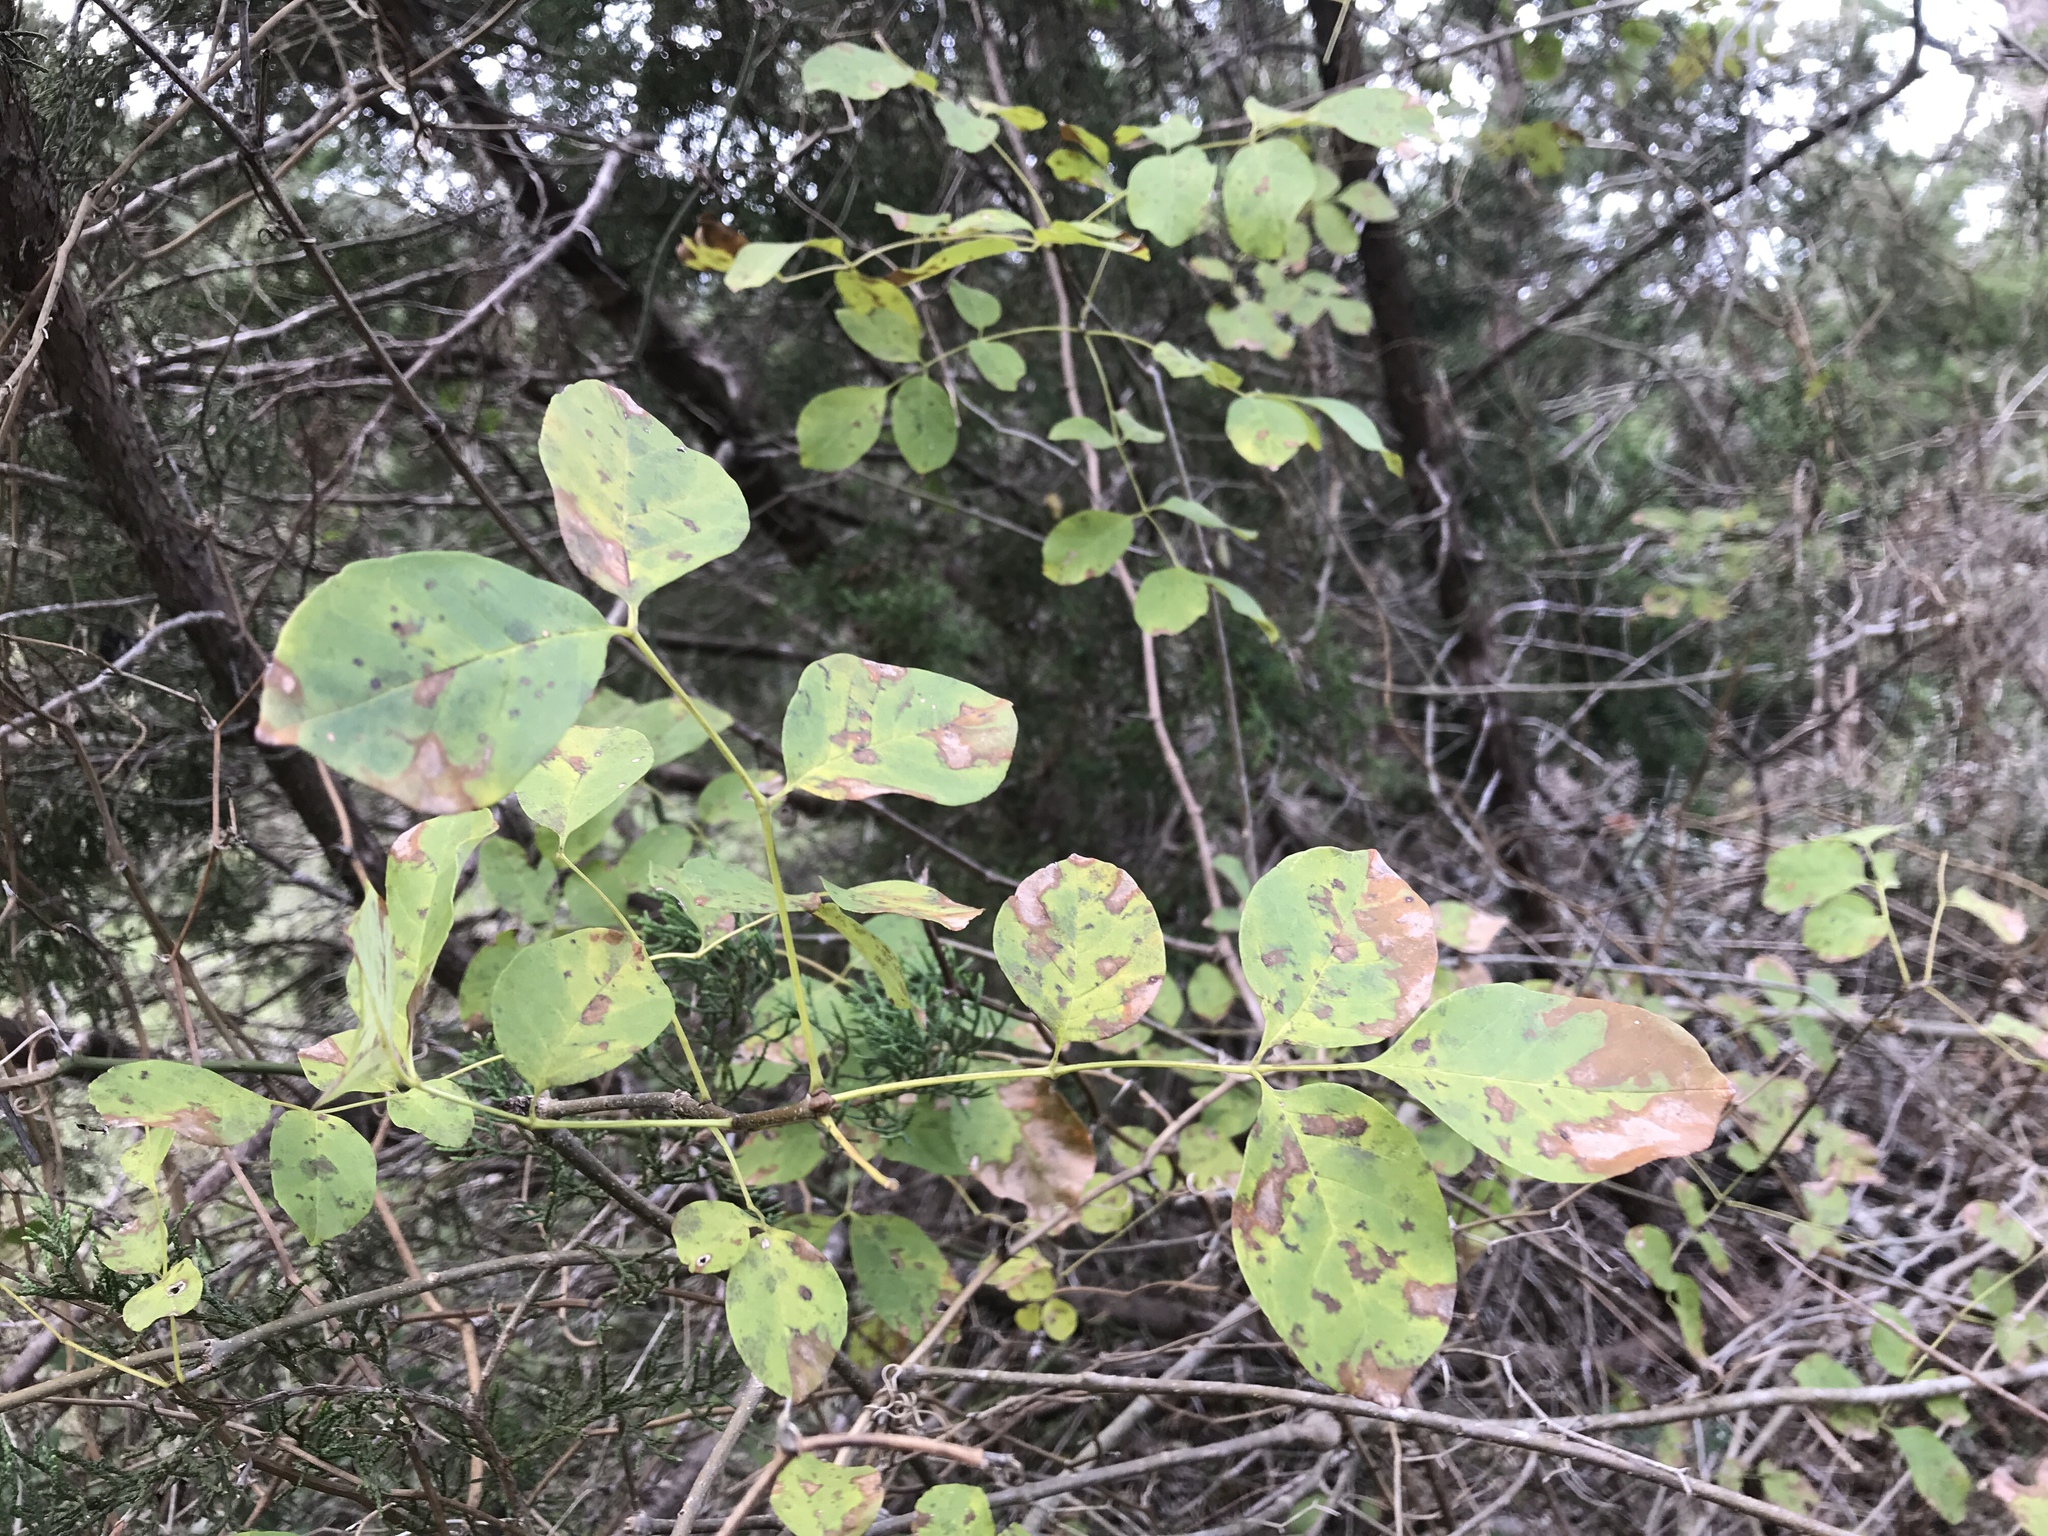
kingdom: Plantae
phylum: Tracheophyta
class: Magnoliopsida
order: Lamiales
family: Oleaceae
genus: Fraxinus
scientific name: Fraxinus albicans
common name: Texas ash
